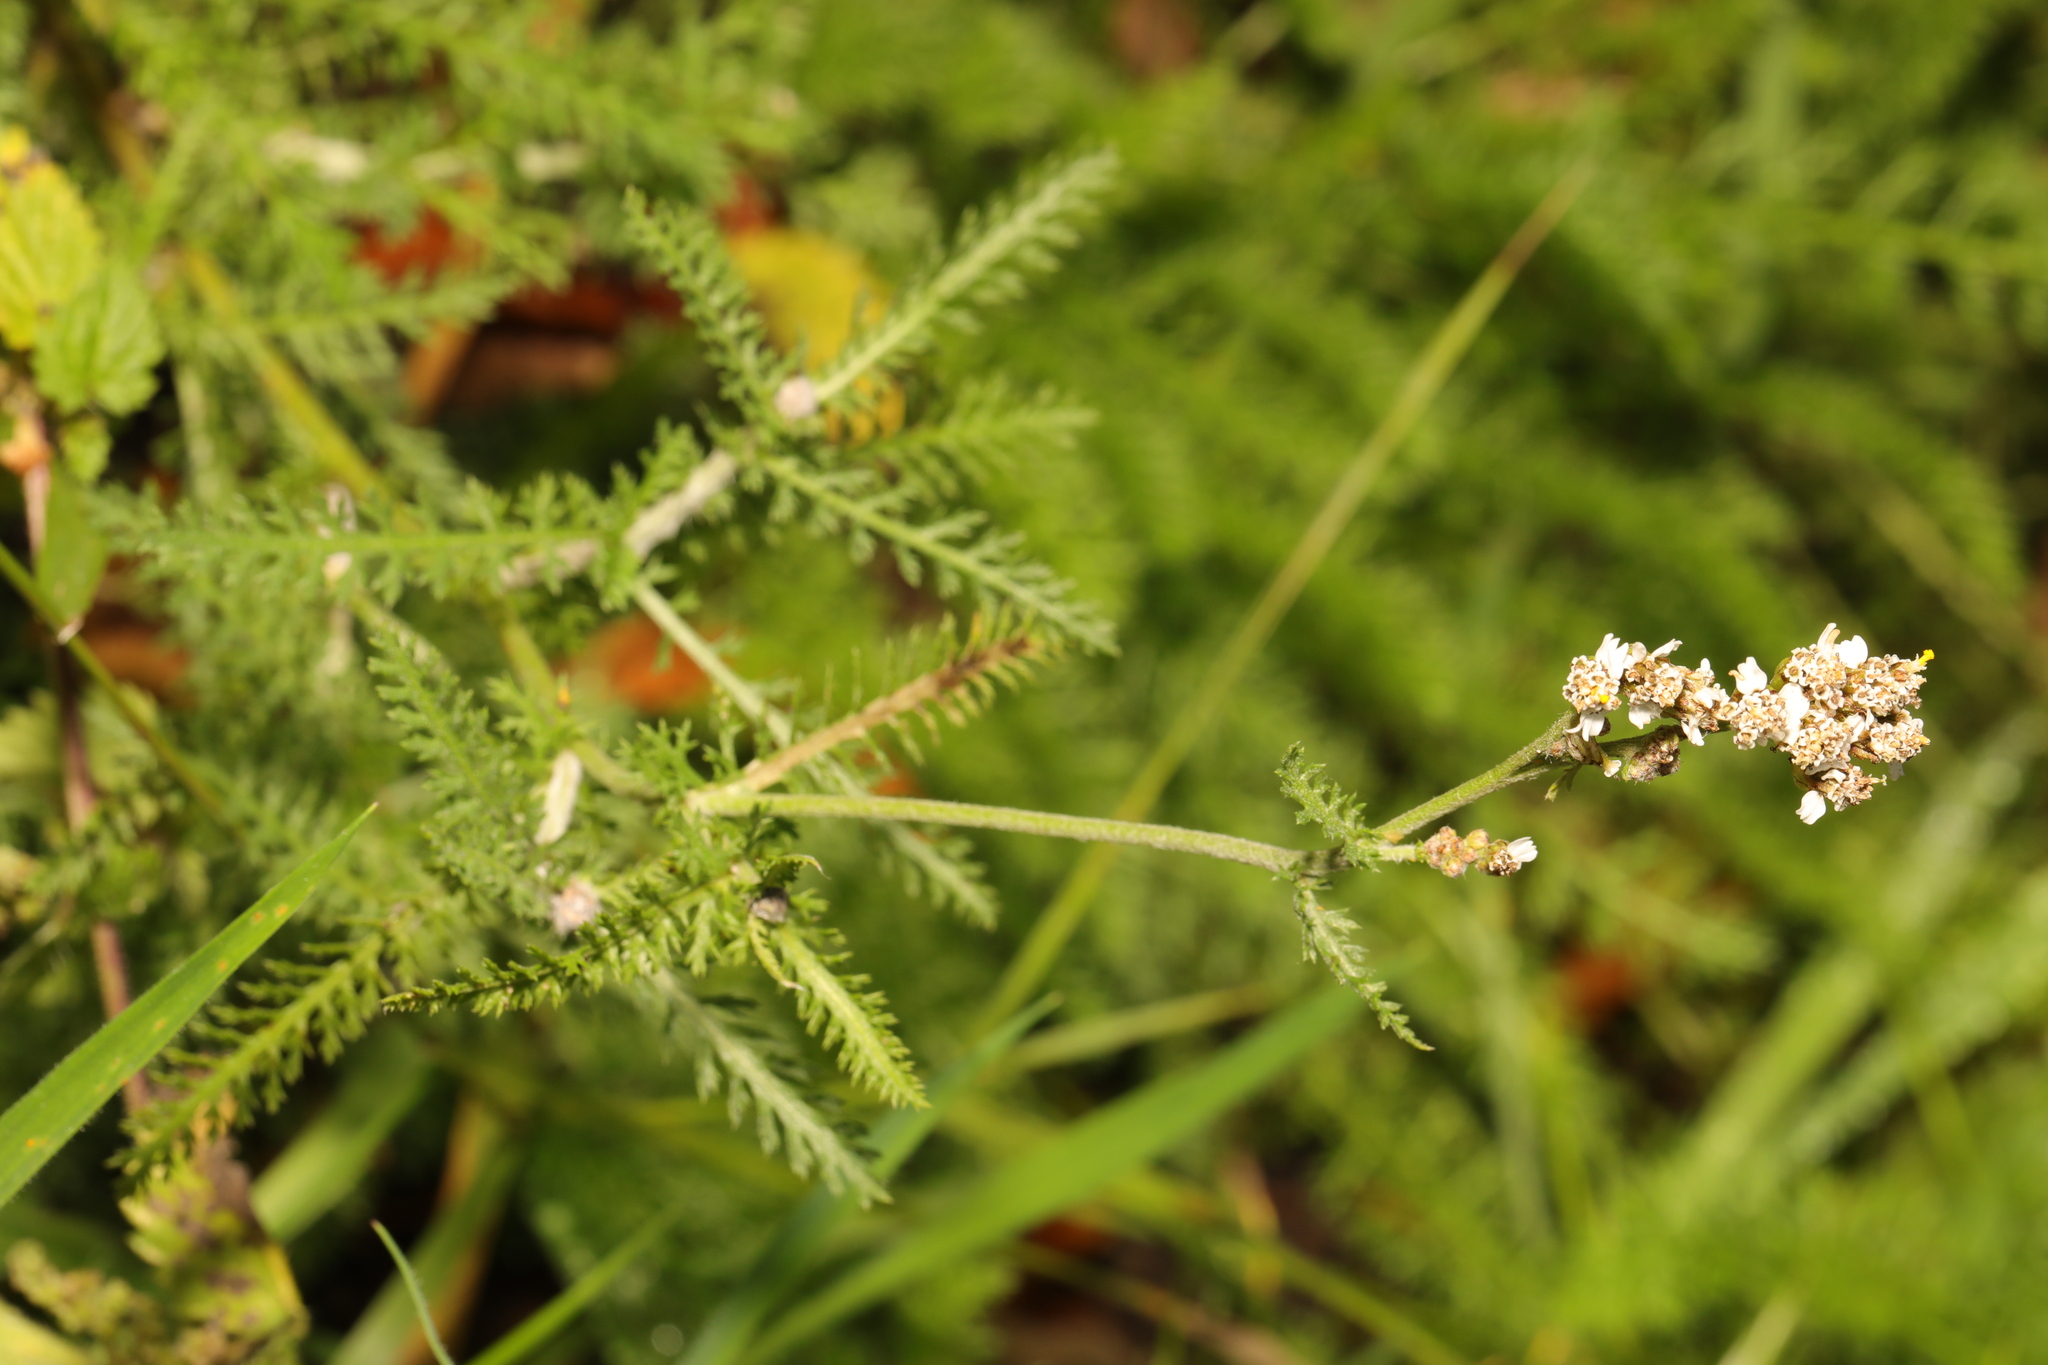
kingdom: Plantae
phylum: Tracheophyta
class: Magnoliopsida
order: Asterales
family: Asteraceae
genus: Achillea
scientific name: Achillea millefolium
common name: Yarrow
